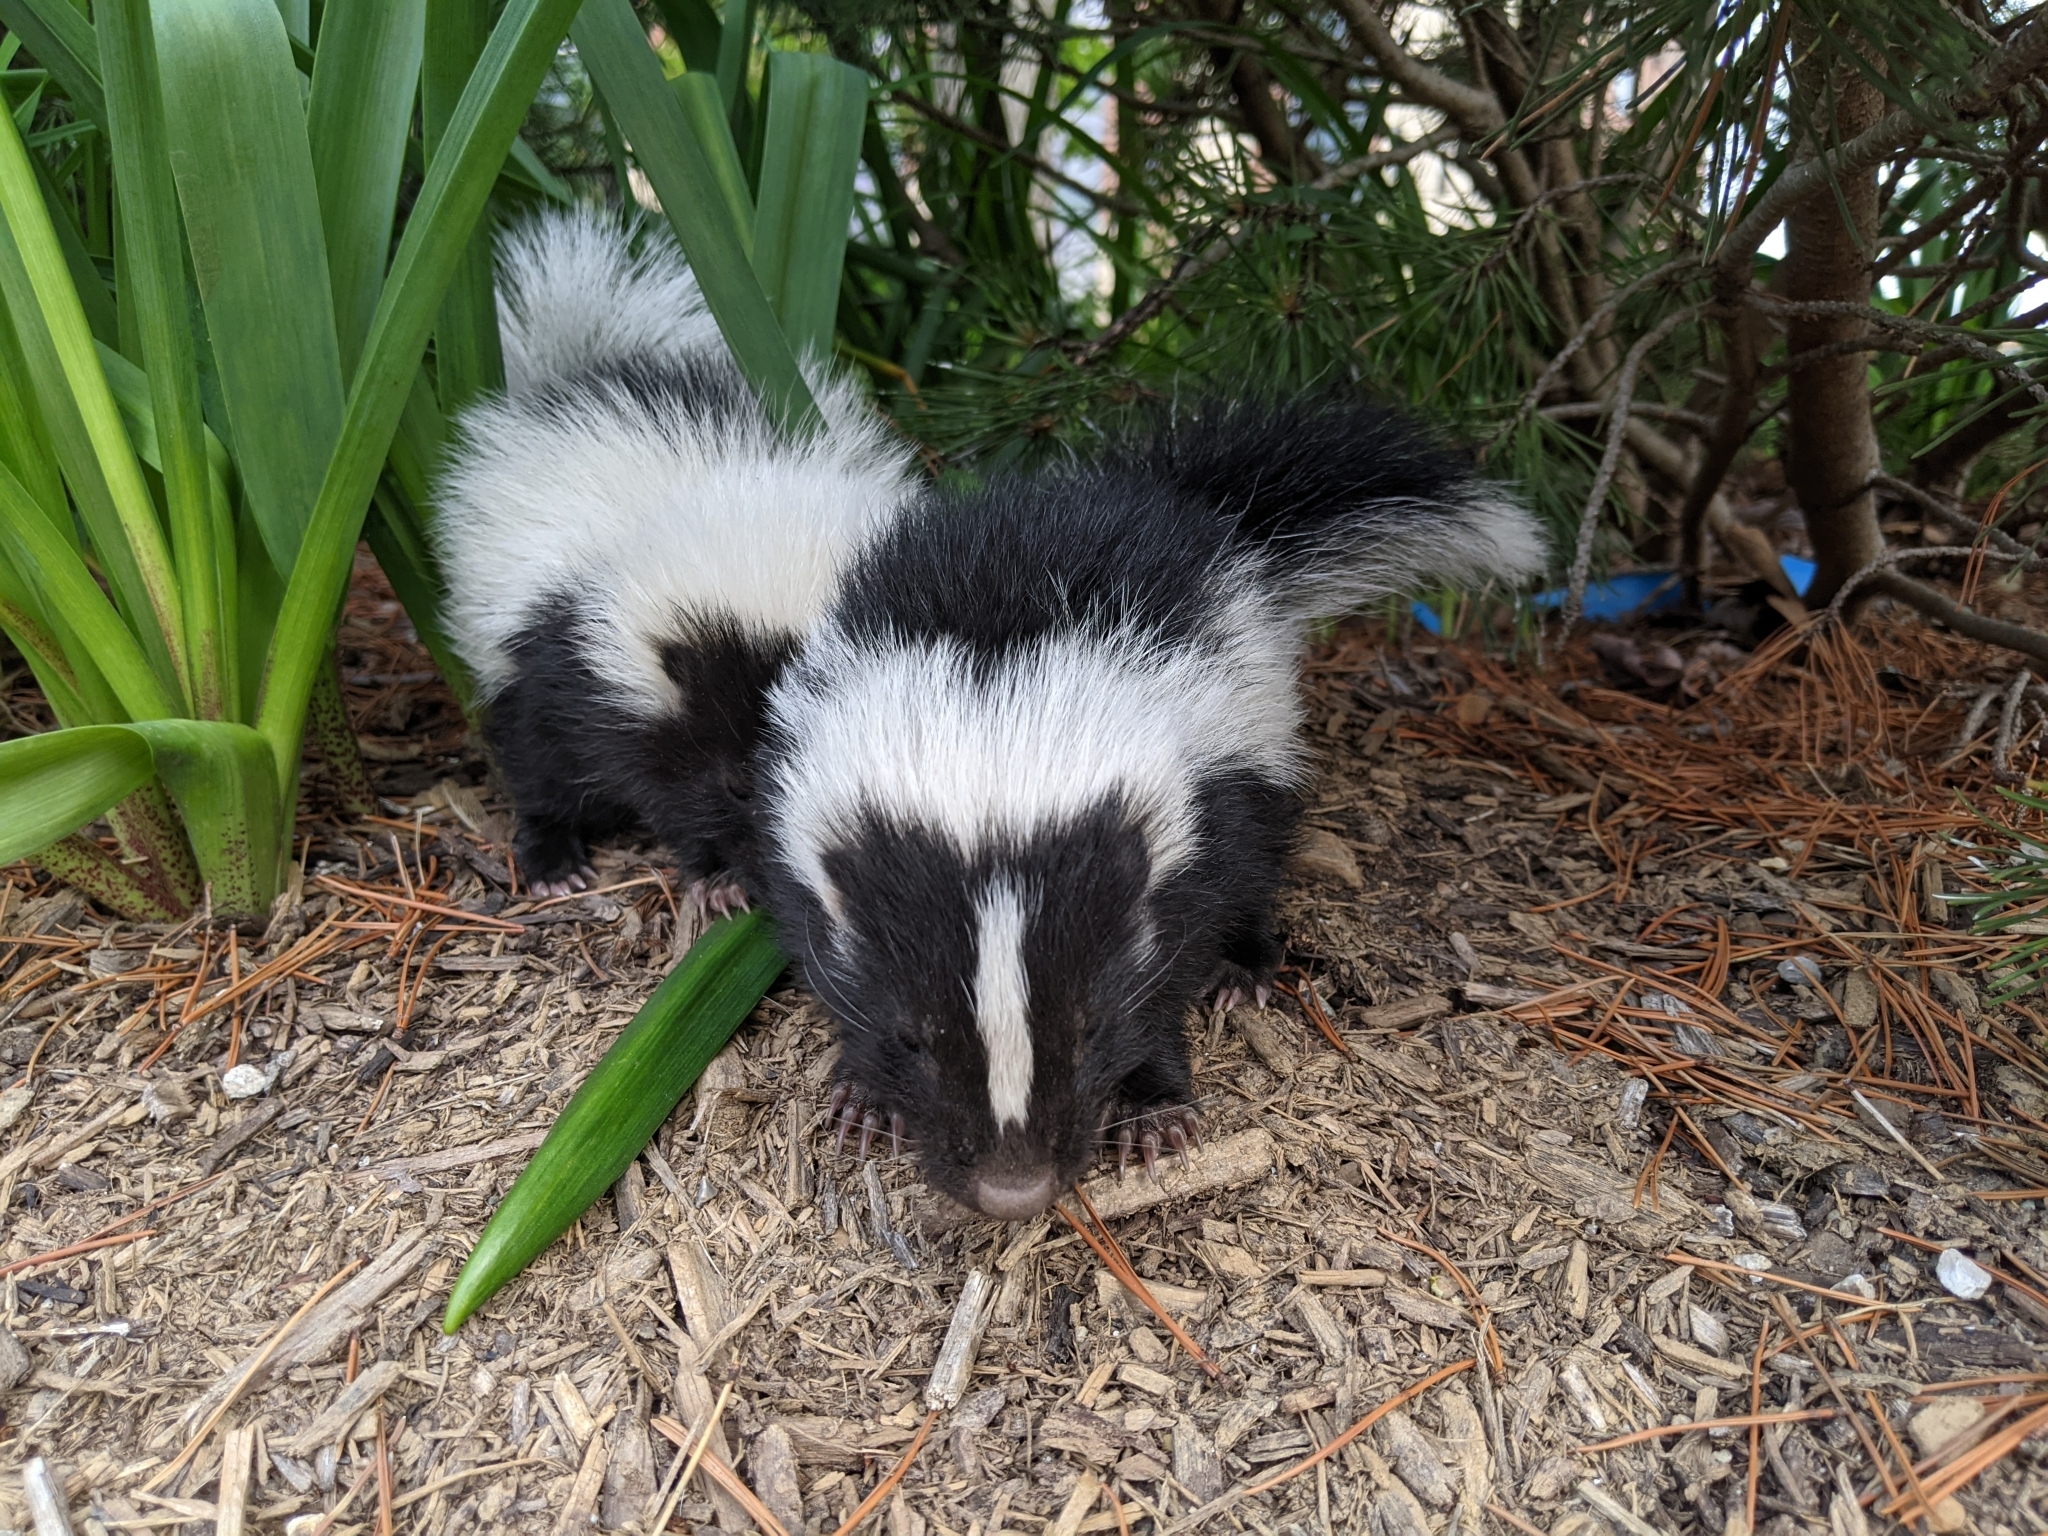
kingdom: Animalia
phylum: Chordata
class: Mammalia
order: Carnivora
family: Mephitidae
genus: Mephitis
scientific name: Mephitis mephitis
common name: Striped skunk
